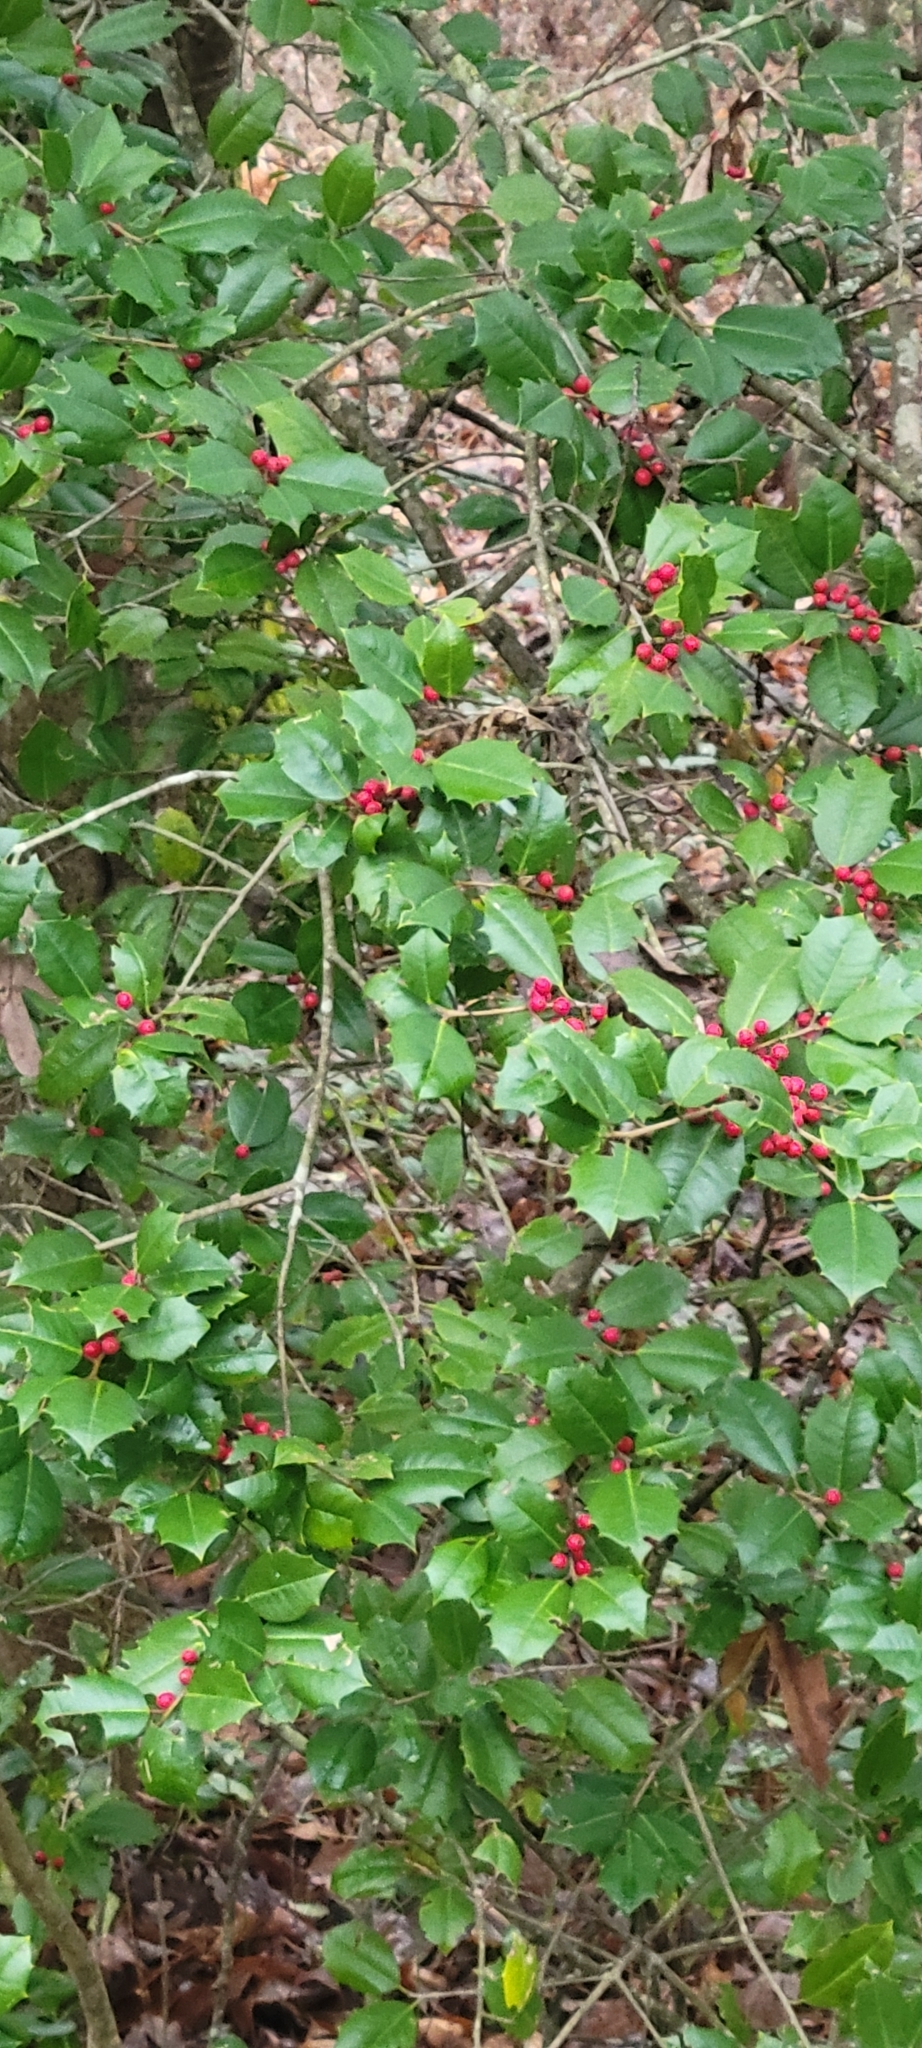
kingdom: Plantae
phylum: Tracheophyta
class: Magnoliopsida
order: Aquifoliales
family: Aquifoliaceae
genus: Ilex
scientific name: Ilex opaca
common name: American holly
